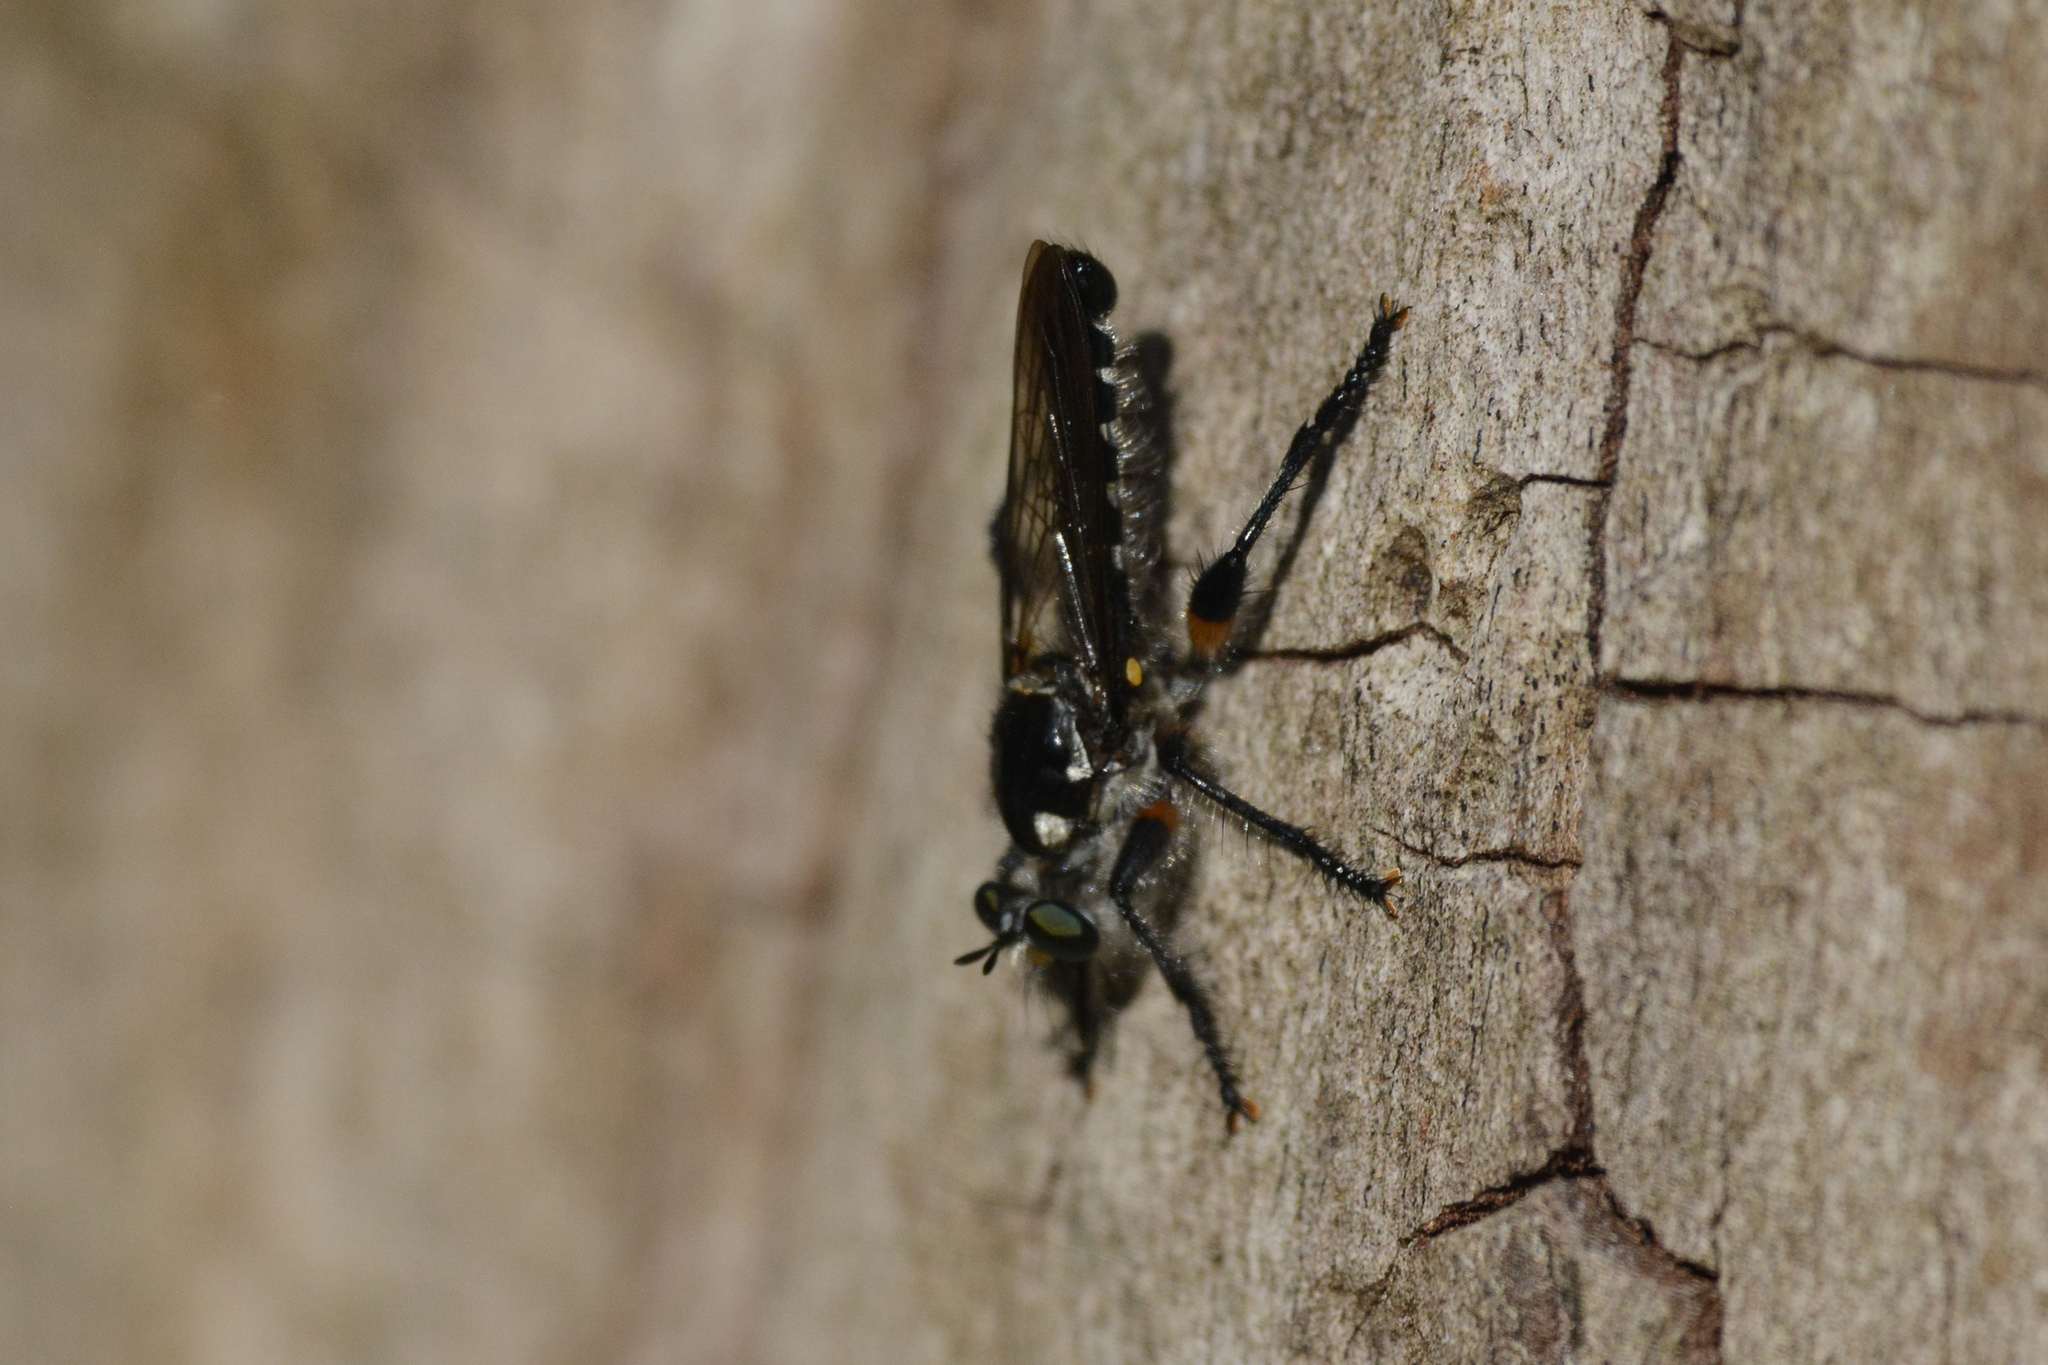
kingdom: Animalia
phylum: Arthropoda
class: Insecta
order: Diptera
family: Asilidae
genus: Laphria
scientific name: Laphria rufifemorata
